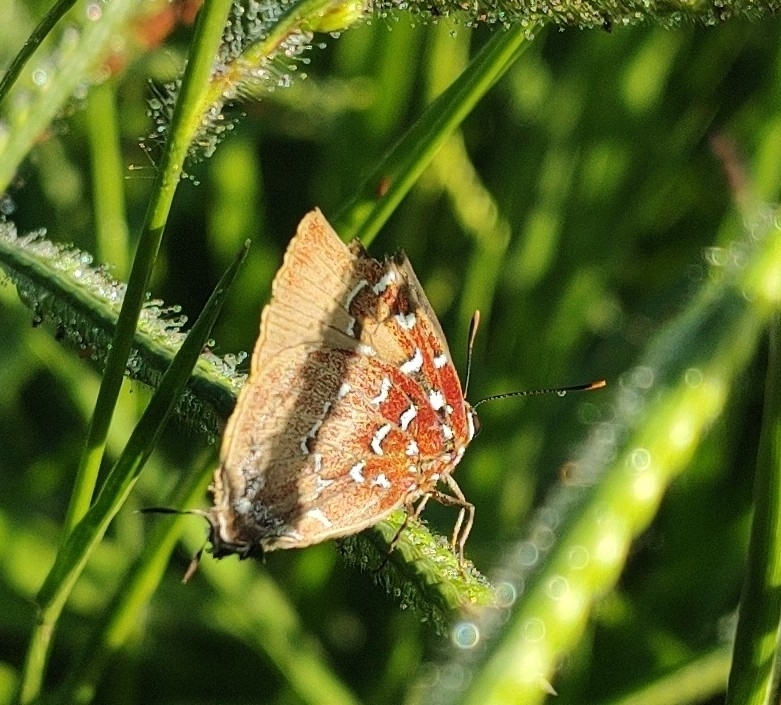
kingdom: Animalia
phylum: Arthropoda
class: Insecta
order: Lepidoptera
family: Lycaenidae
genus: Atlides
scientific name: Atlides
